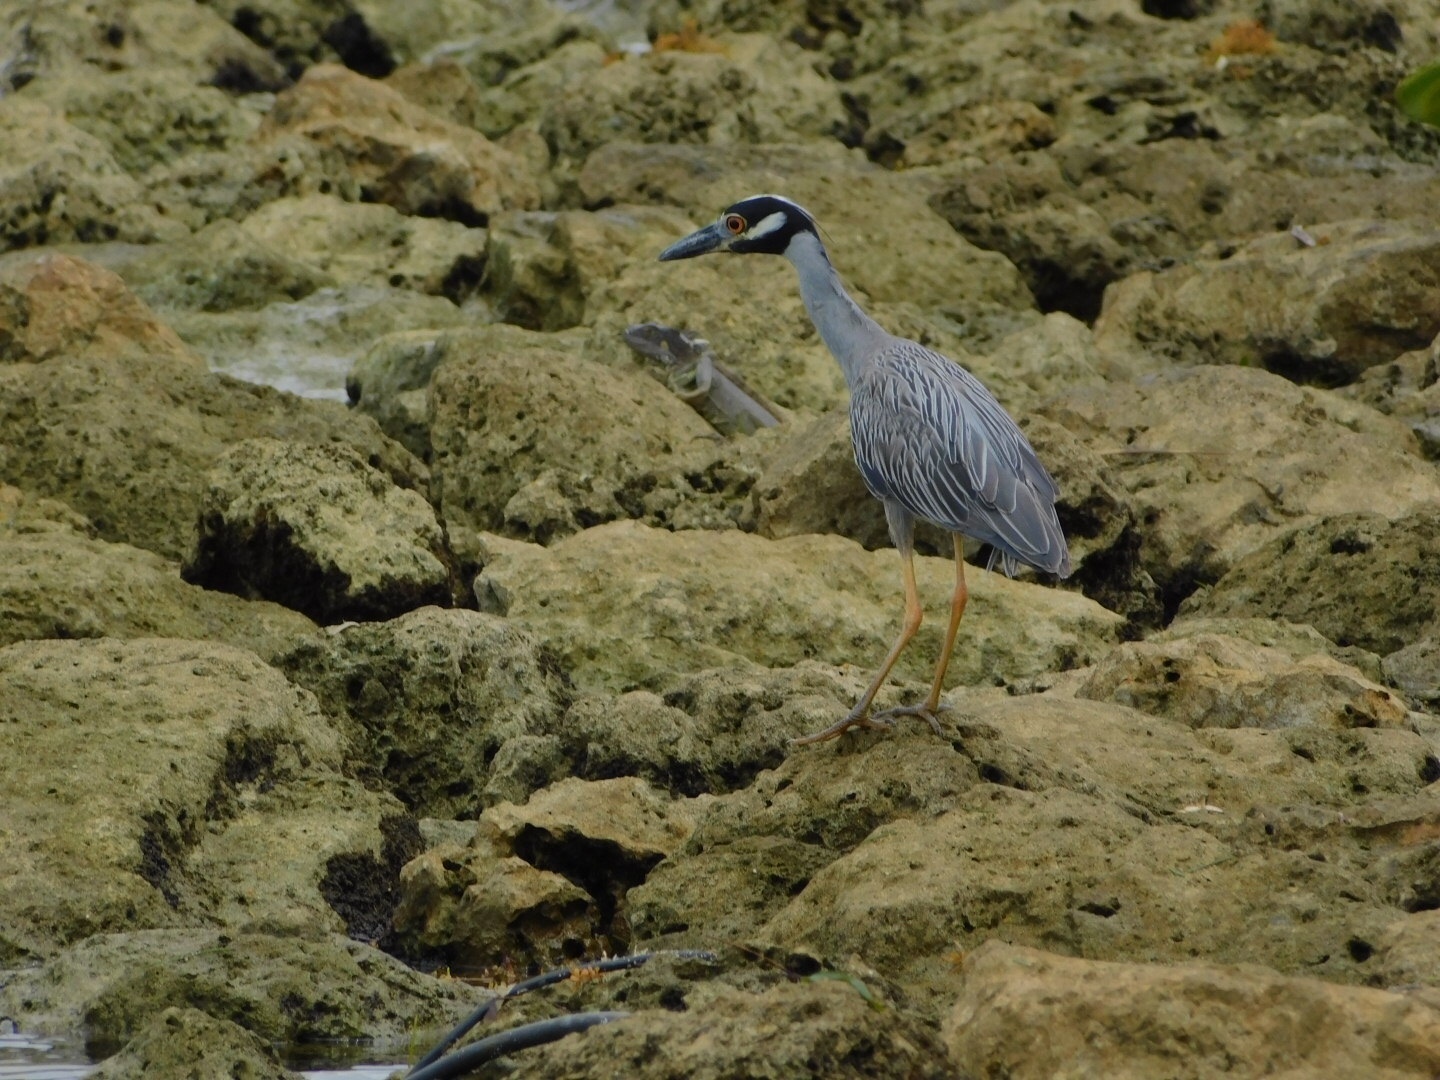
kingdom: Animalia
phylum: Chordata
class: Aves
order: Pelecaniformes
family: Ardeidae
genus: Nyctanassa
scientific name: Nyctanassa violacea
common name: Yellow-crowned night heron
